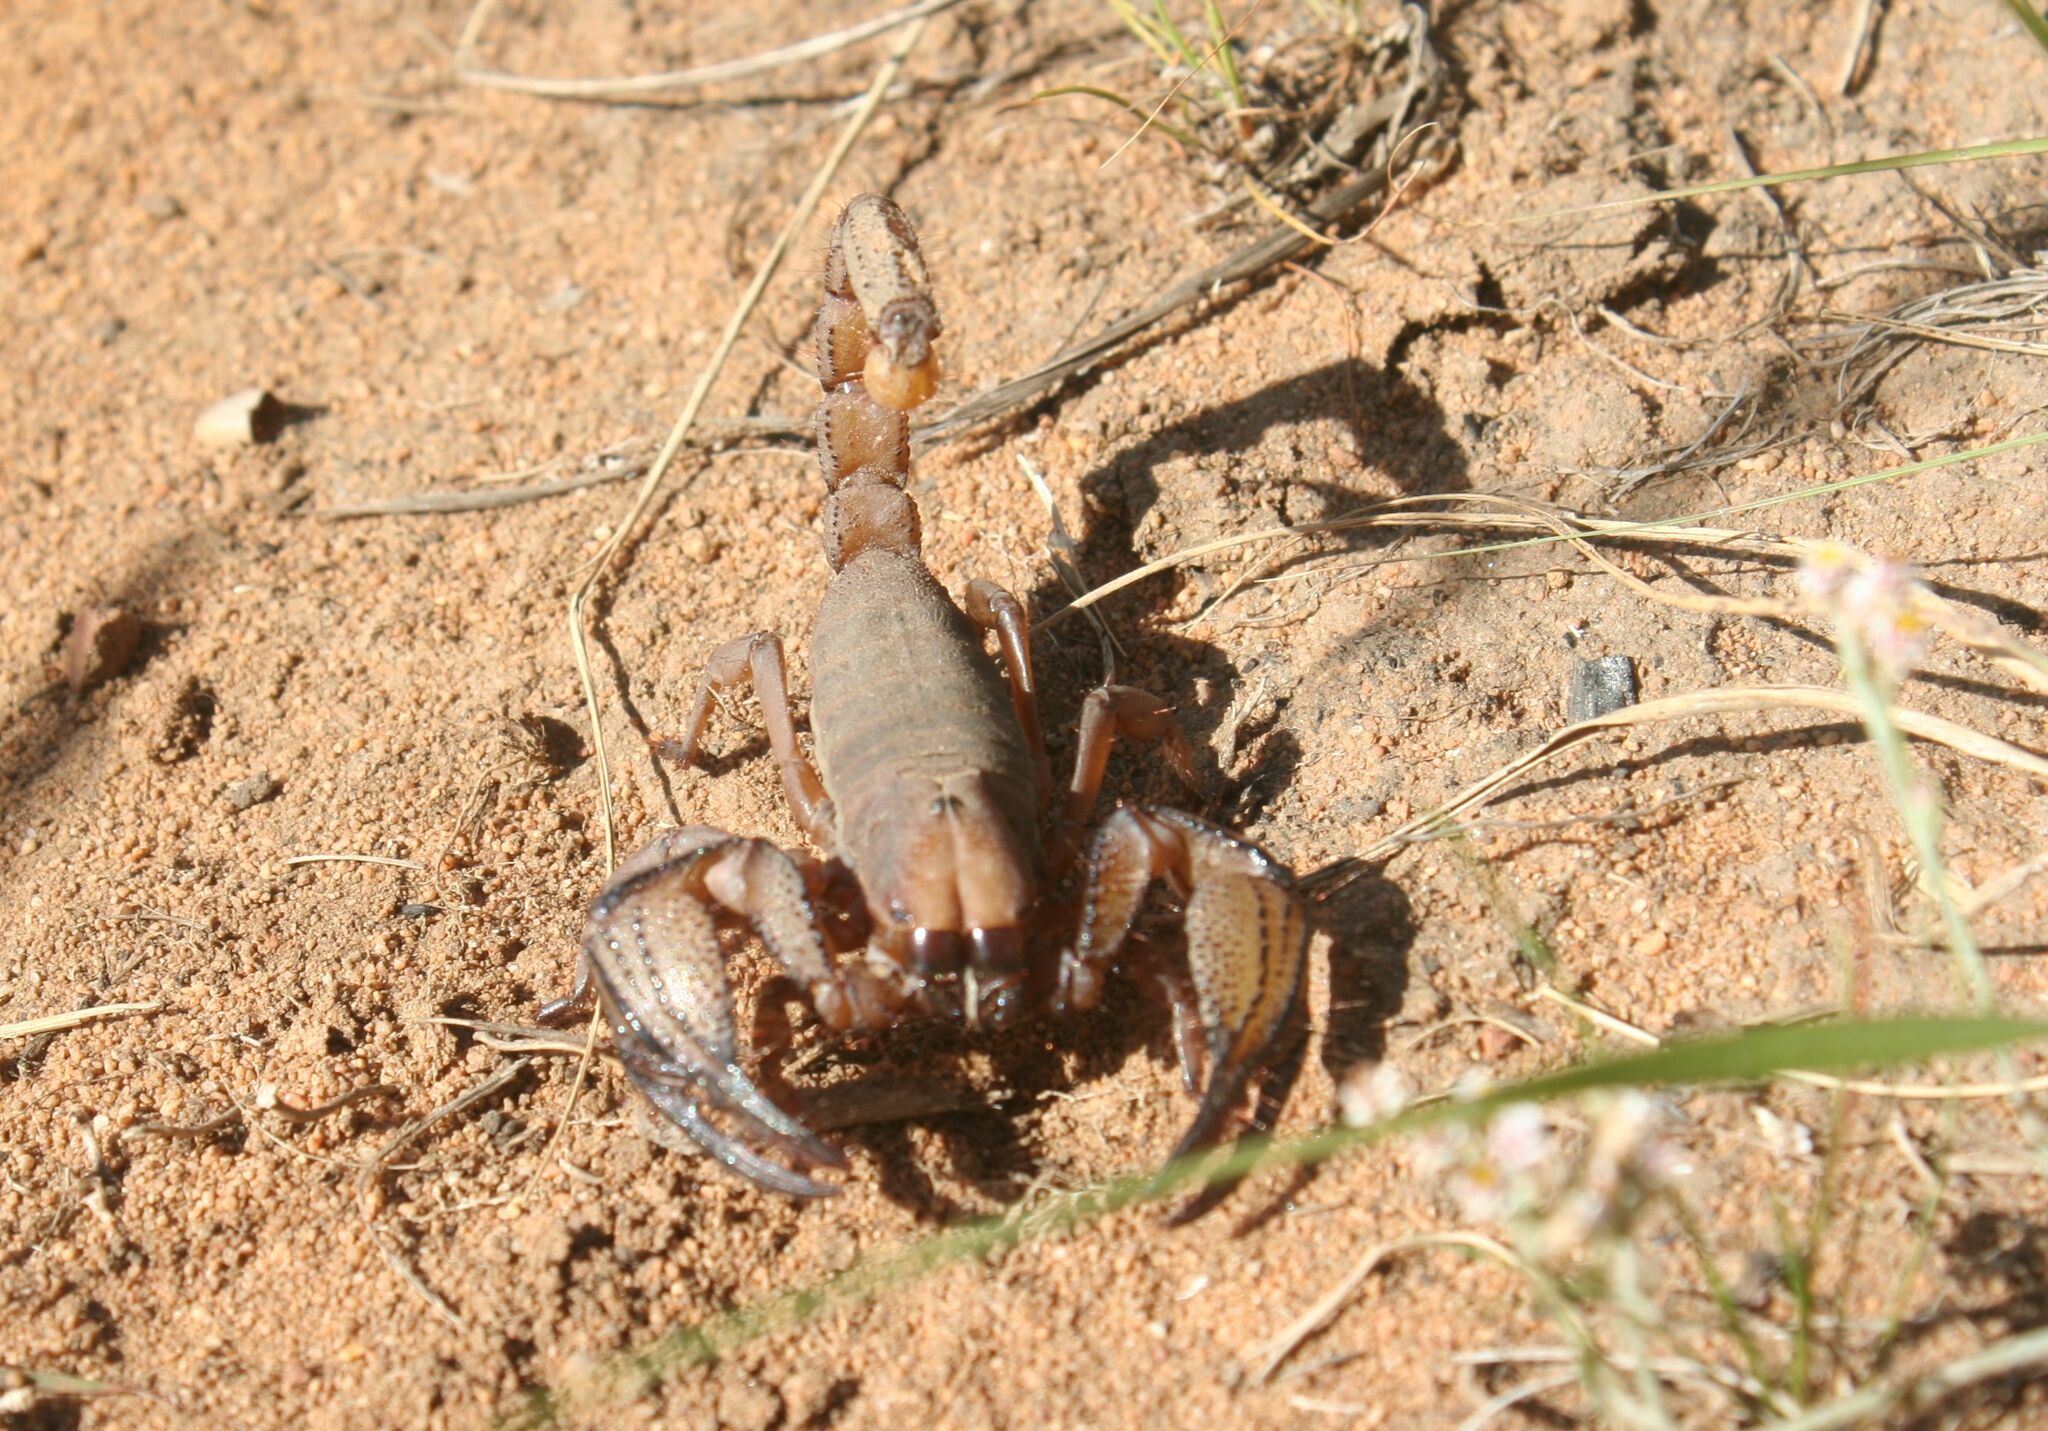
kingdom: Animalia
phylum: Arthropoda
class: Arachnida
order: Scorpiones
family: Scorpionidae
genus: Opistophthalmus
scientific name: Opistophthalmus macer
